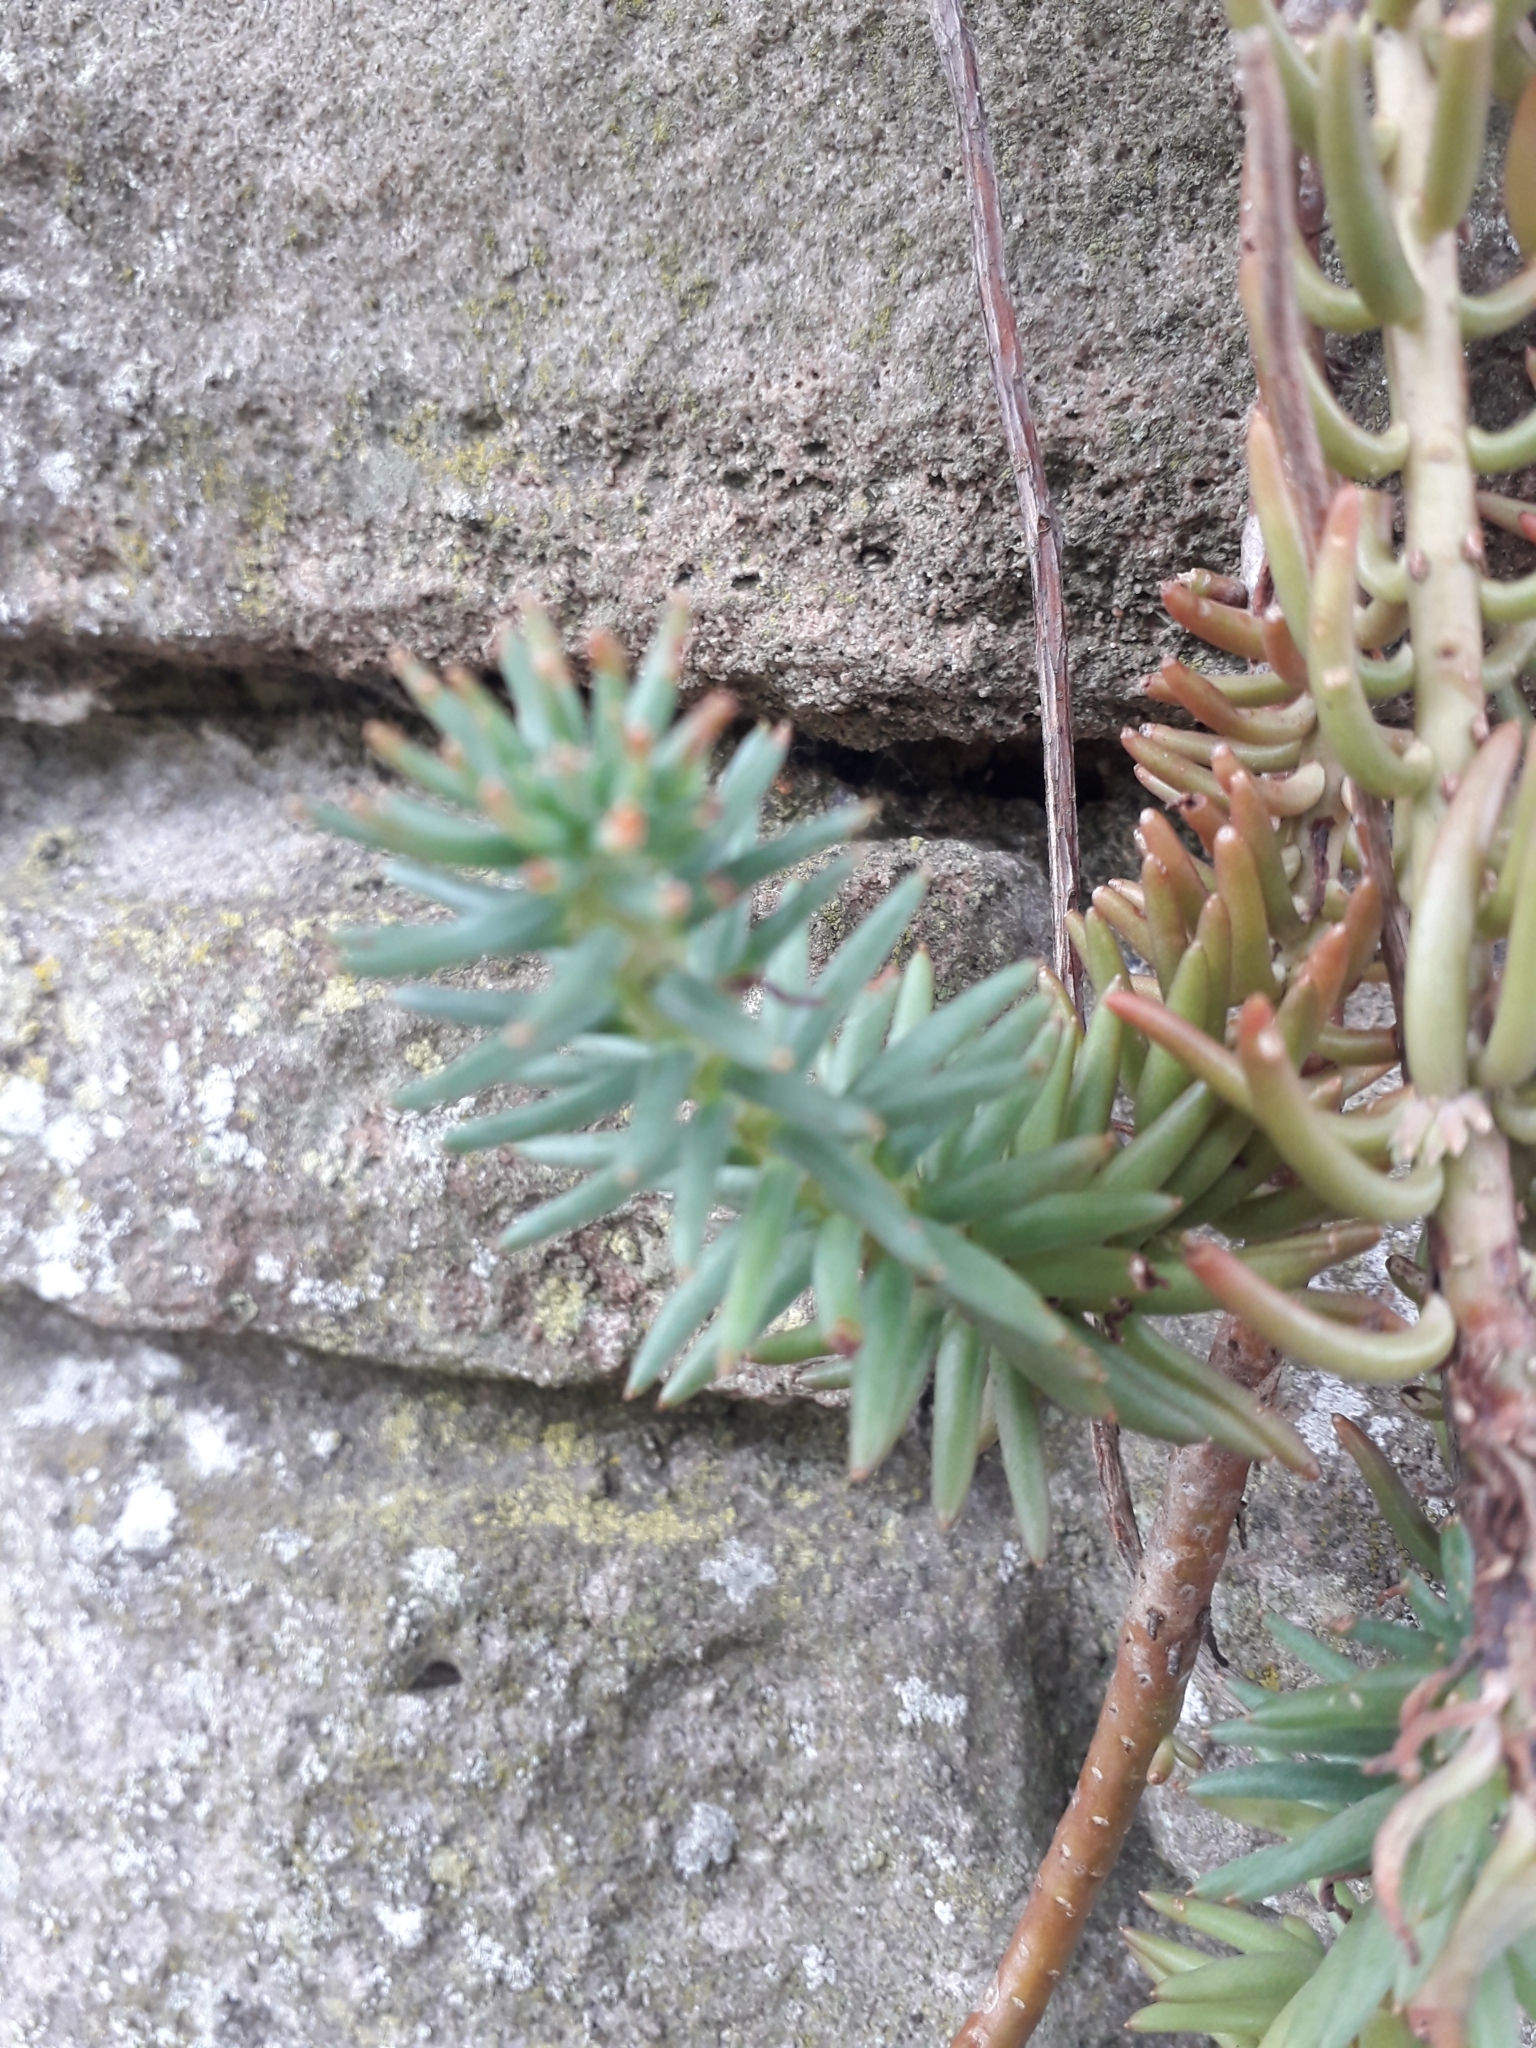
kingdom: Plantae
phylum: Tracheophyta
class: Magnoliopsida
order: Saxifragales
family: Crassulaceae
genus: Petrosedum
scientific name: Petrosedum rupestre
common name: Jenny's stonecrop
